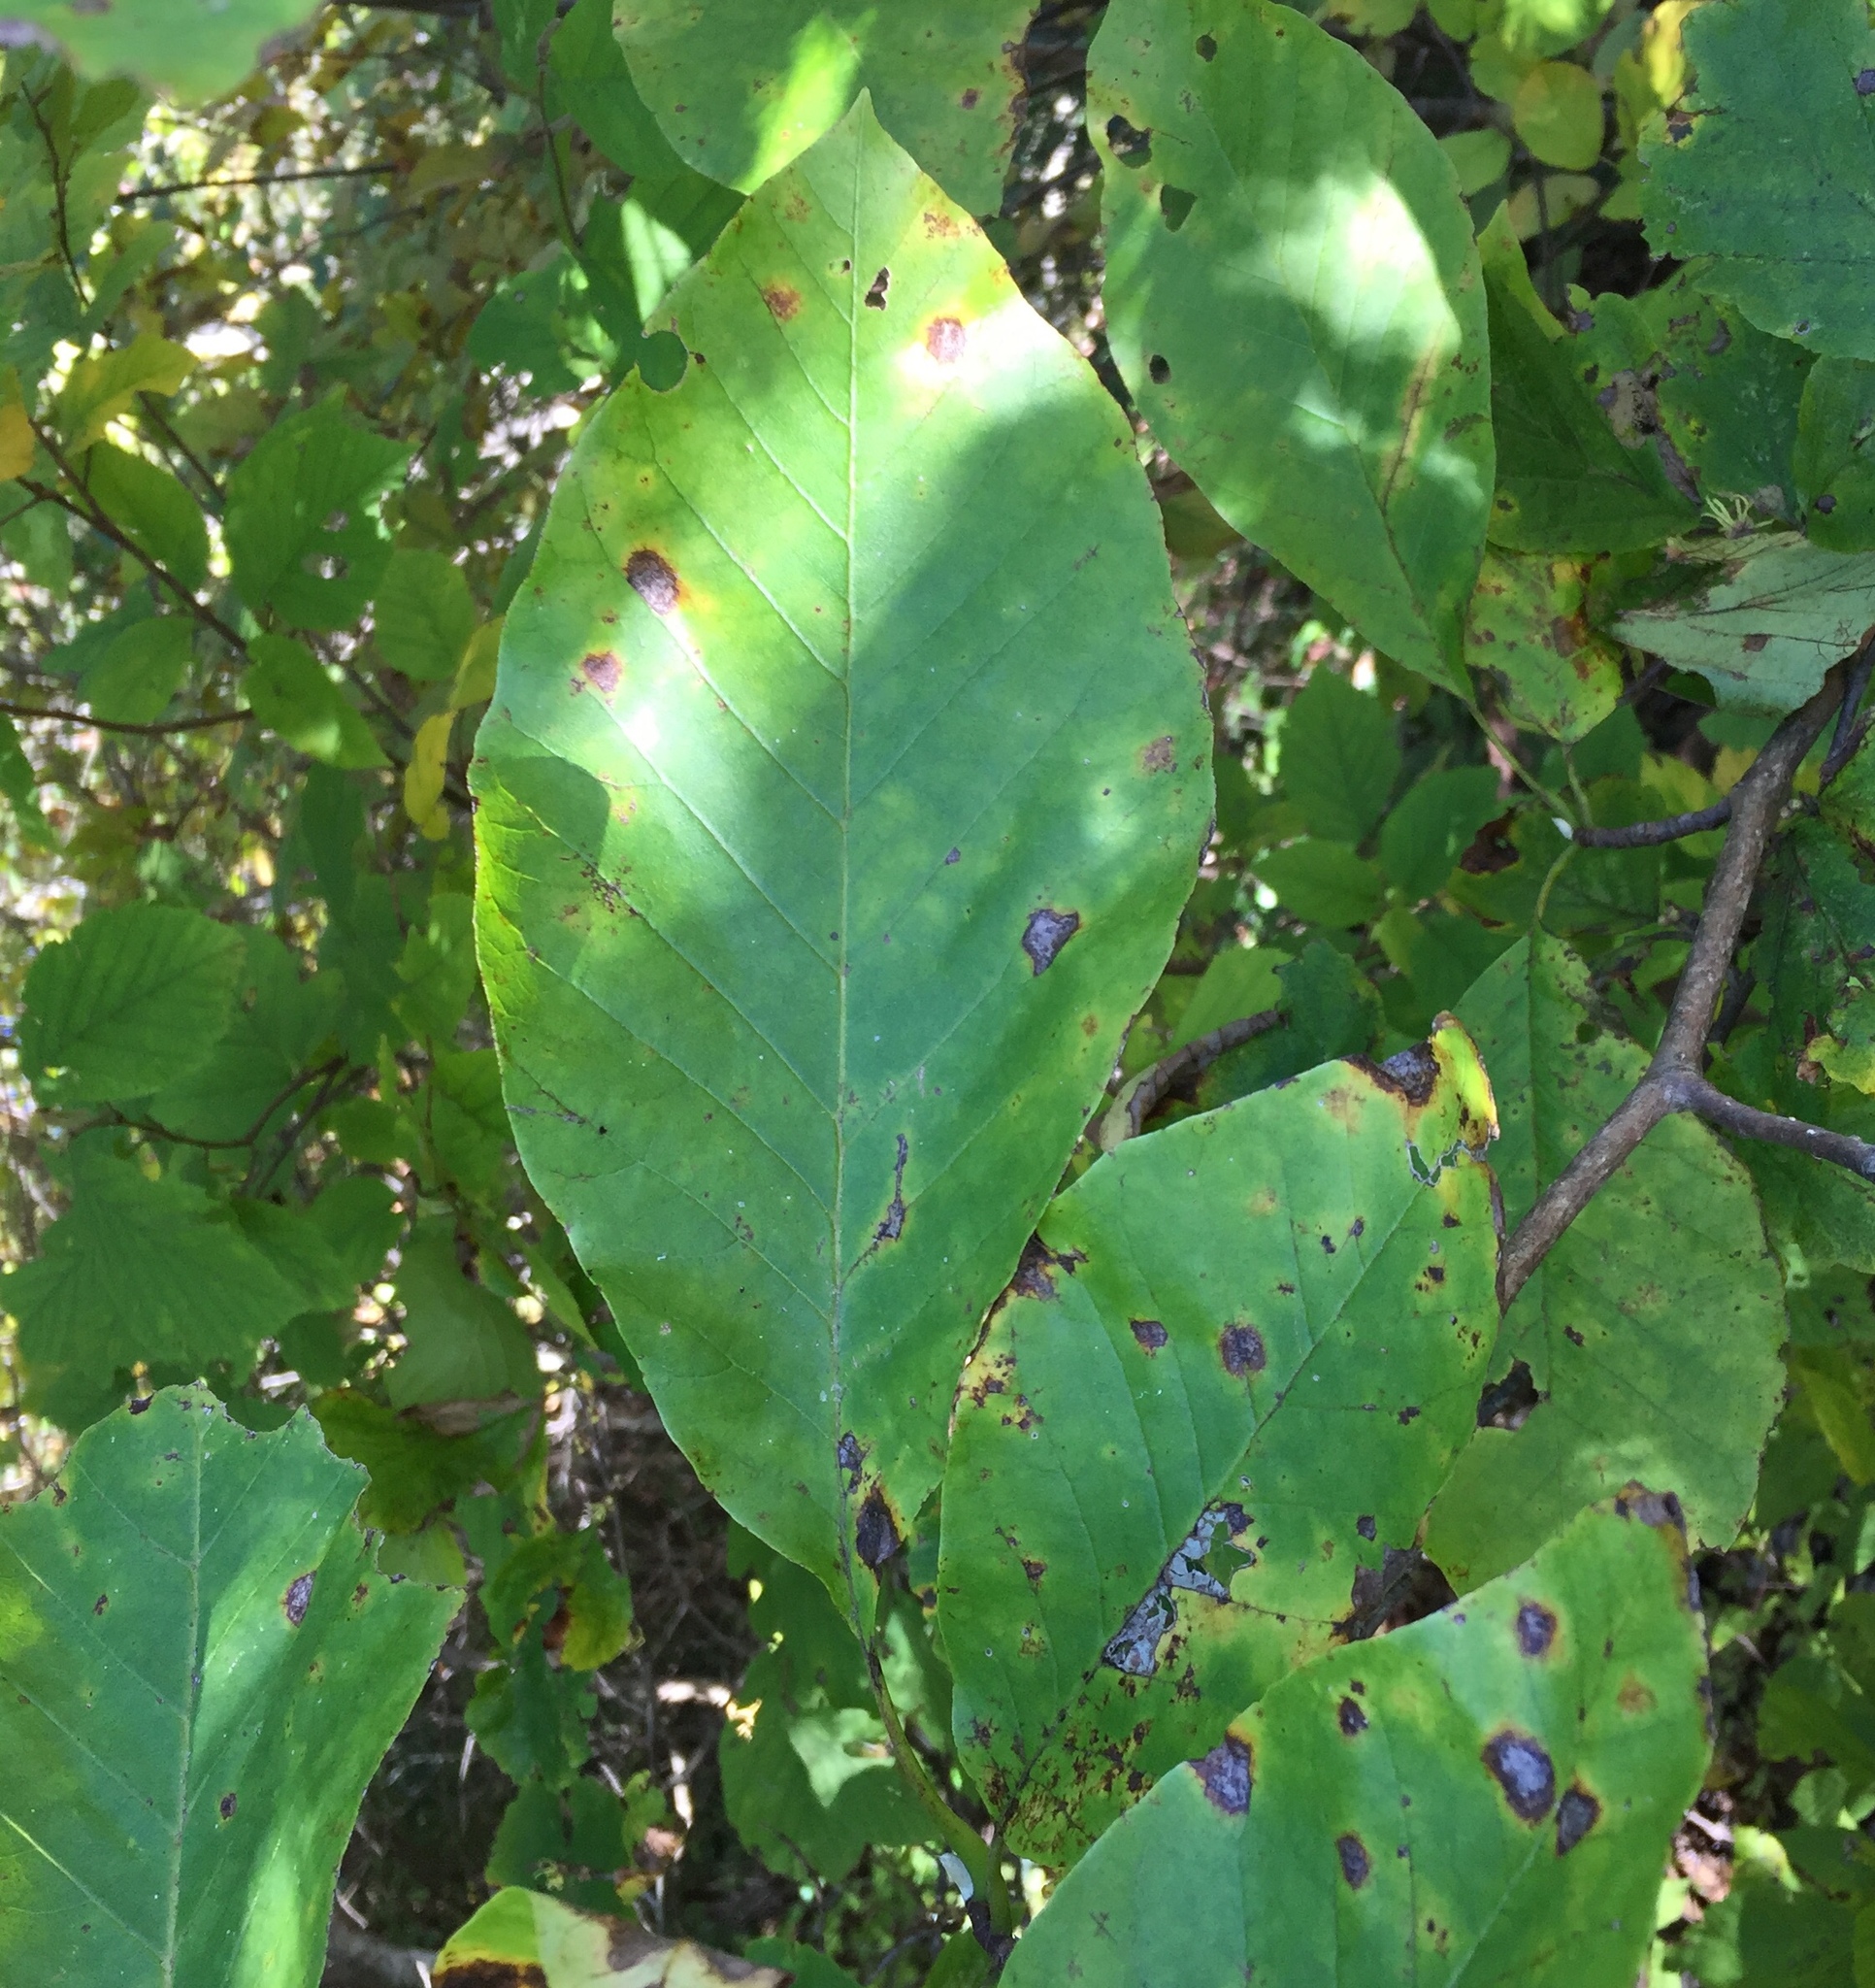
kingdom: Plantae
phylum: Tracheophyta
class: Magnoliopsida
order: Magnoliales
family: Magnoliaceae
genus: Magnolia
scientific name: Magnolia acuminata
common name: Cucumber magnolia
